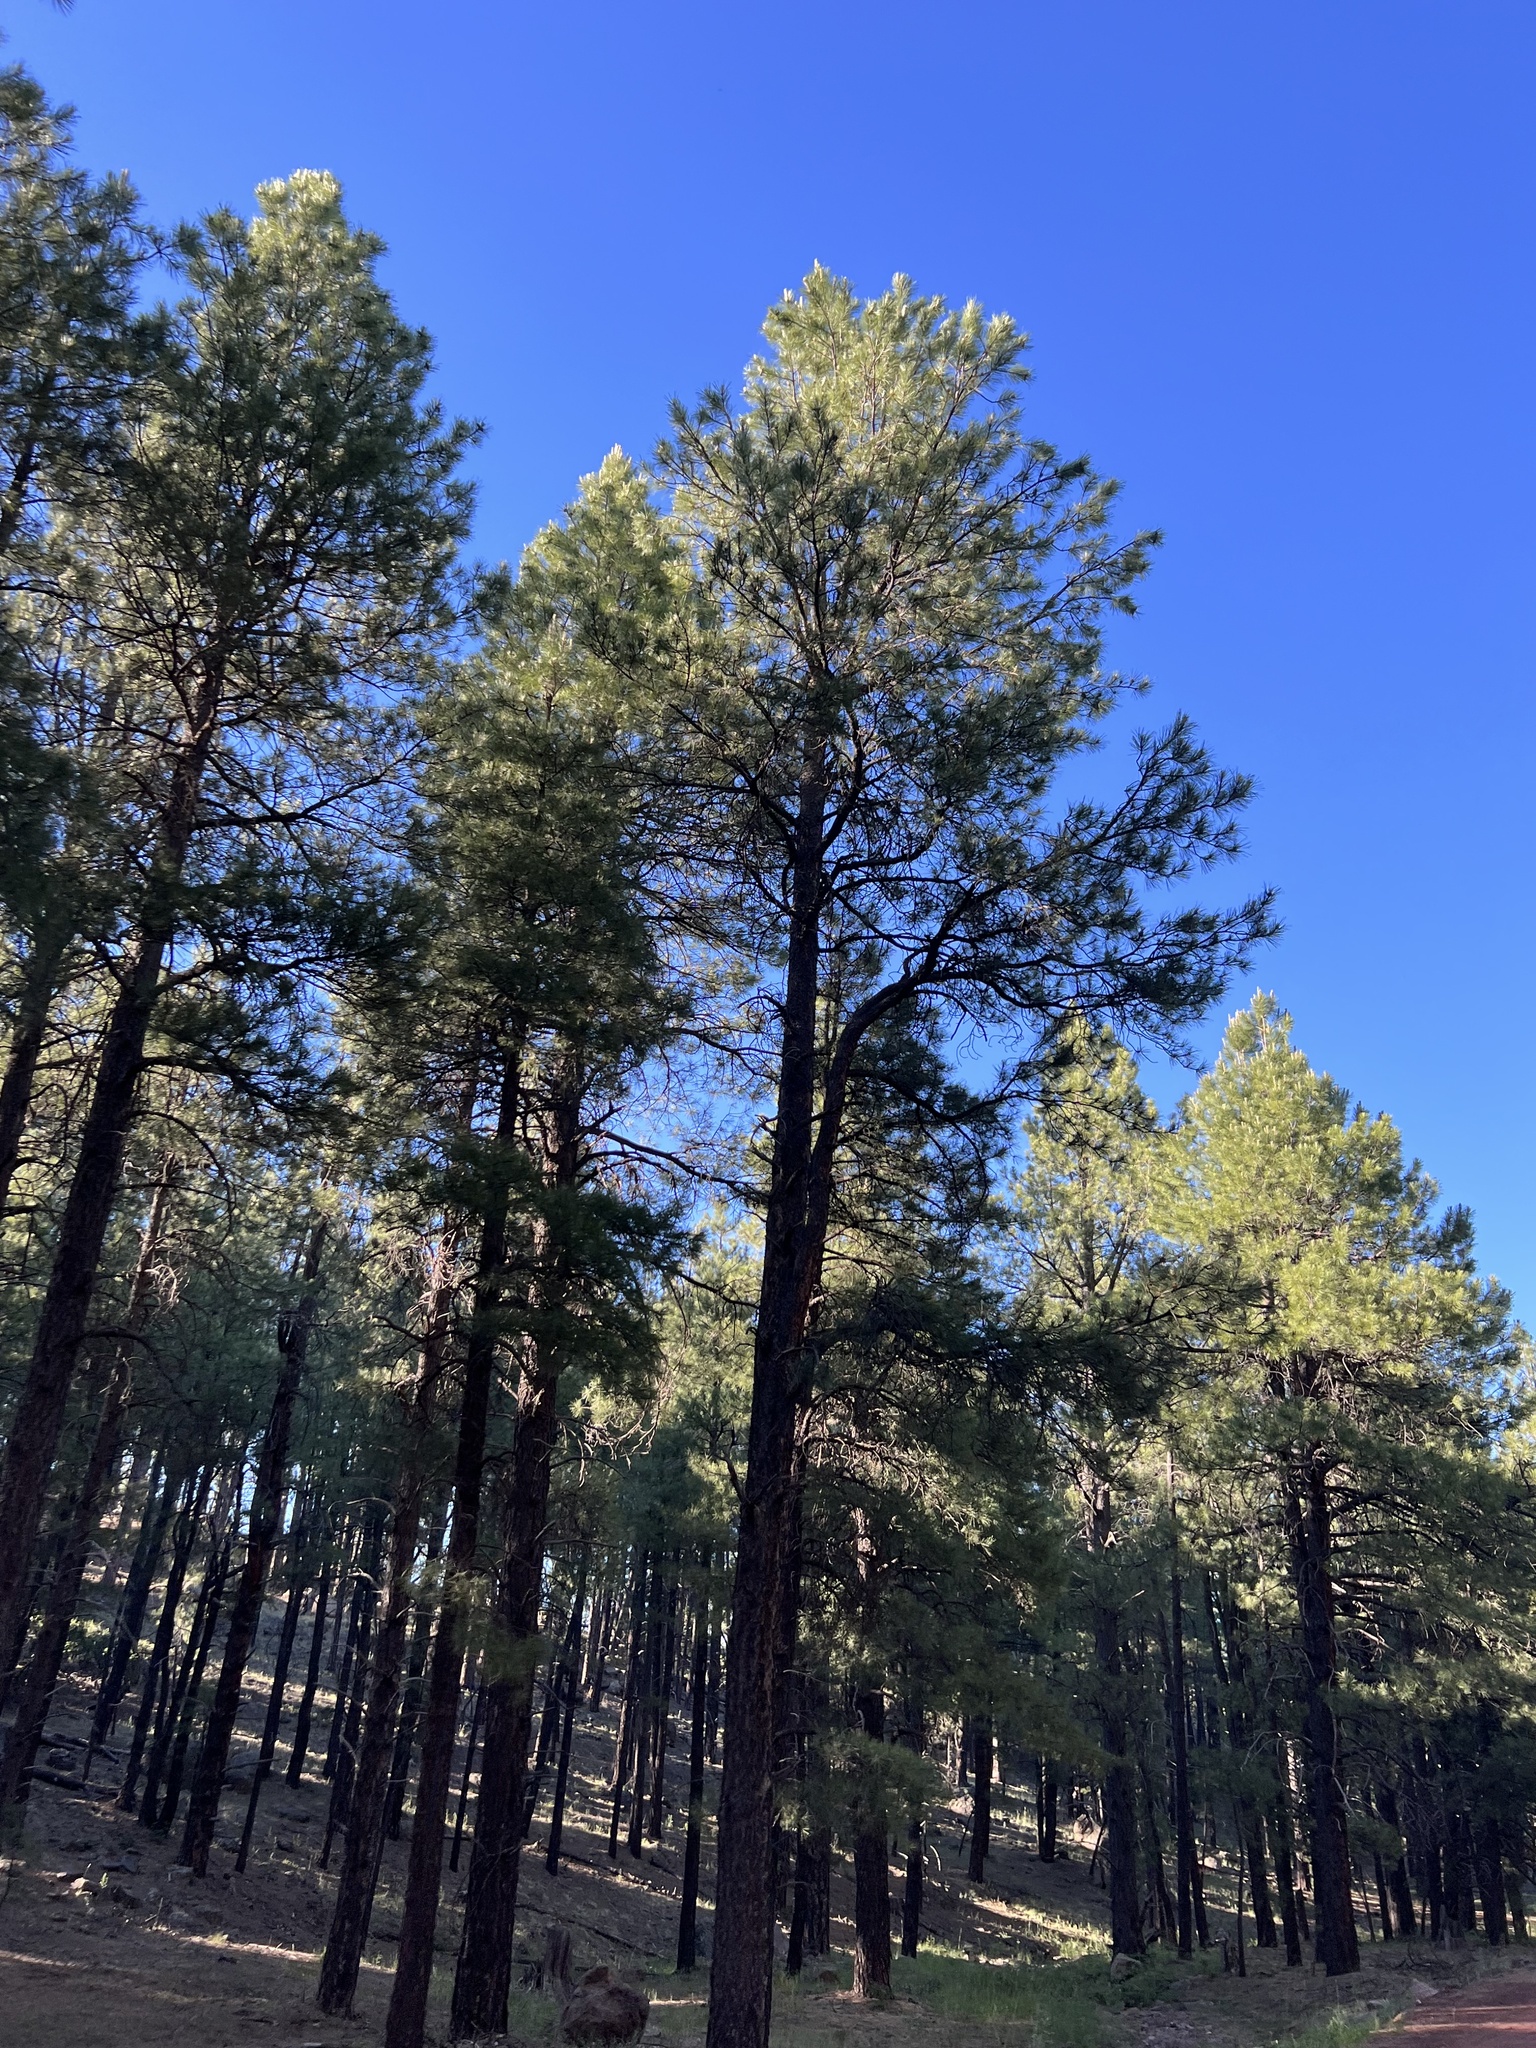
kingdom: Plantae
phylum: Tracheophyta
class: Pinopsida
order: Pinales
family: Pinaceae
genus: Pinus
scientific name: Pinus ponderosa
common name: Western yellow-pine
